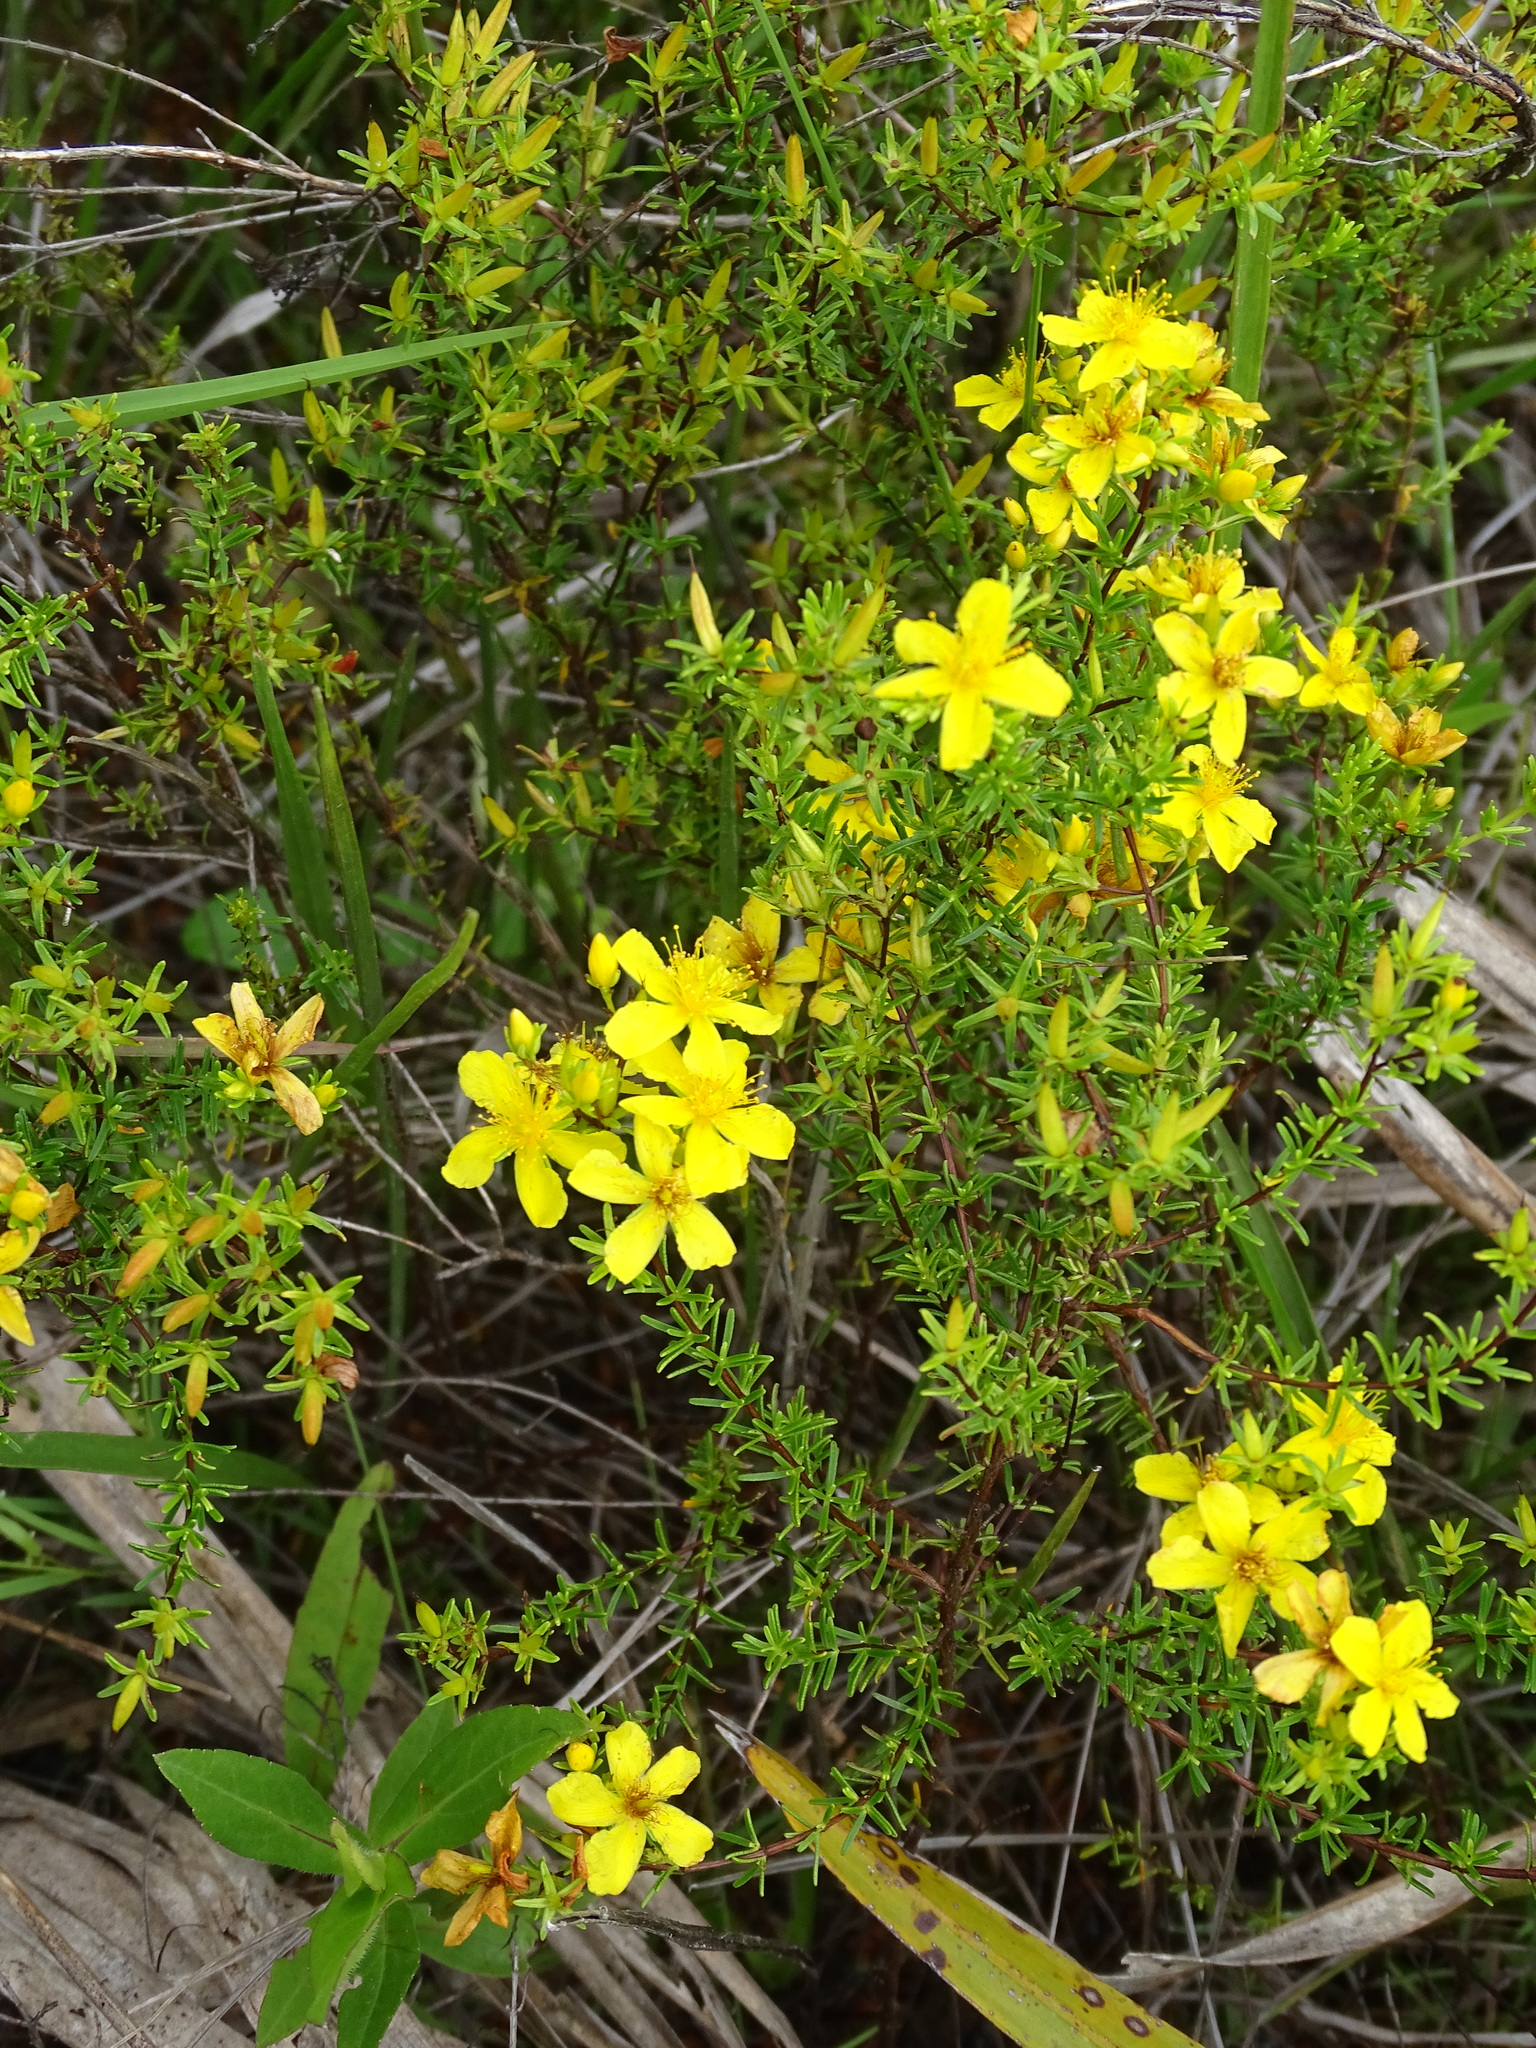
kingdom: Plantae
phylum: Tracheophyta
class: Magnoliopsida
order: Malpighiales
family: Hypericaceae
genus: Hypericum
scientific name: Hypericum tenuifolium
